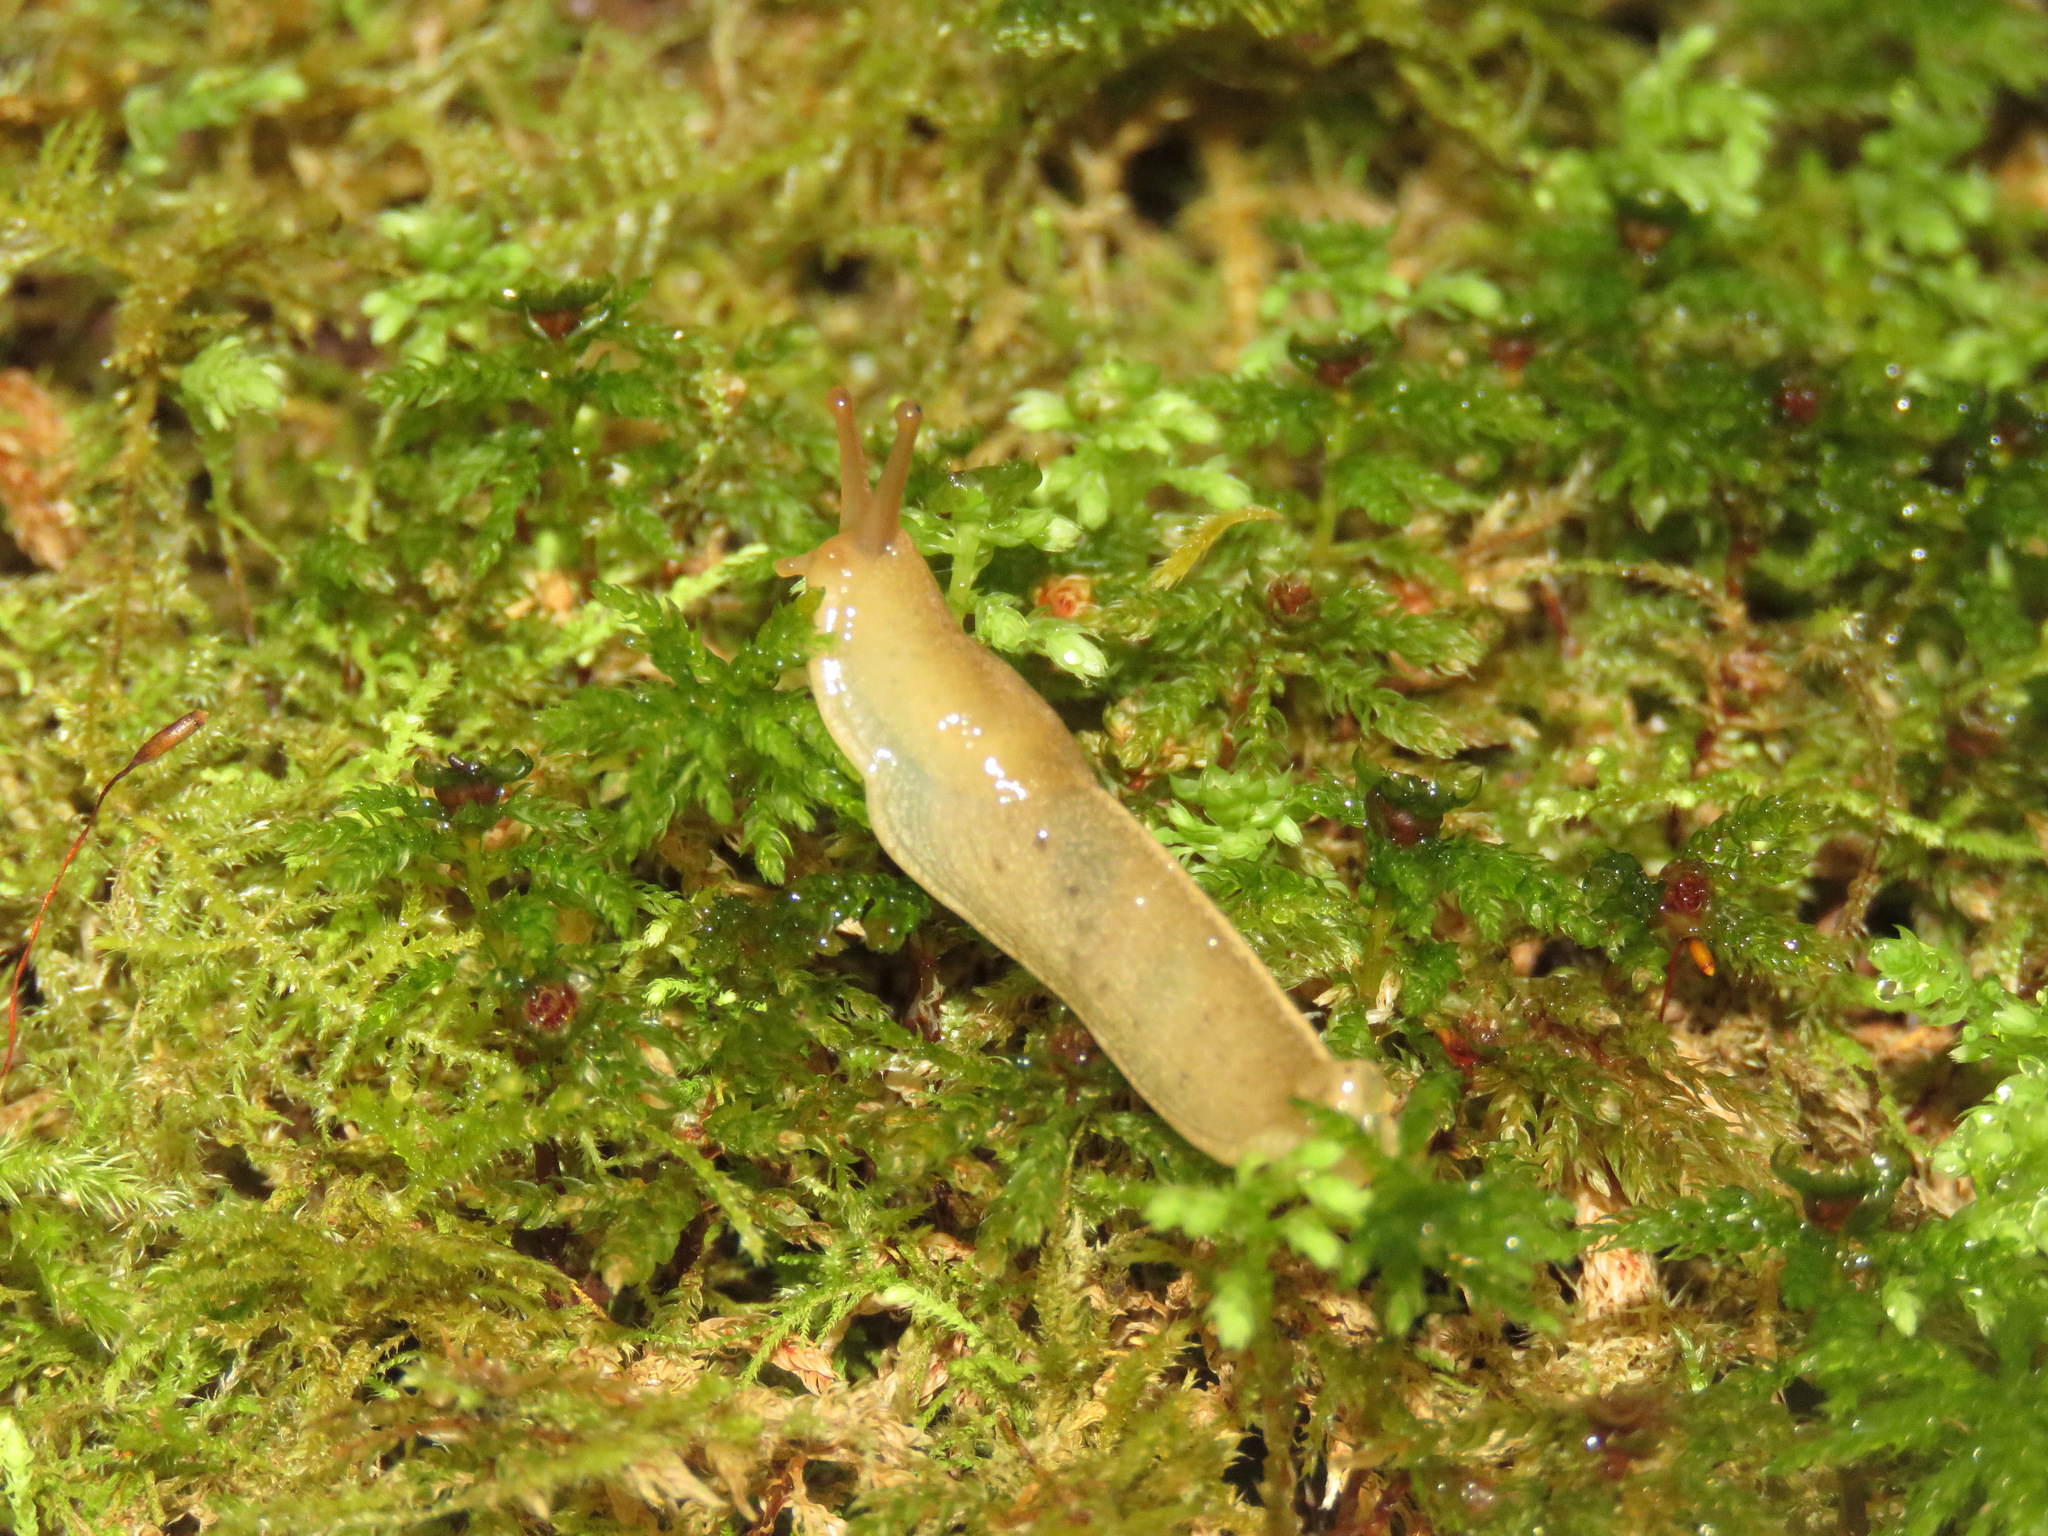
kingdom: Animalia
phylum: Mollusca
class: Gastropoda
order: Stylommatophora
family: Ariolimacidae
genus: Ariolimax
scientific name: Ariolimax columbianus
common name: Pacific banana slug
